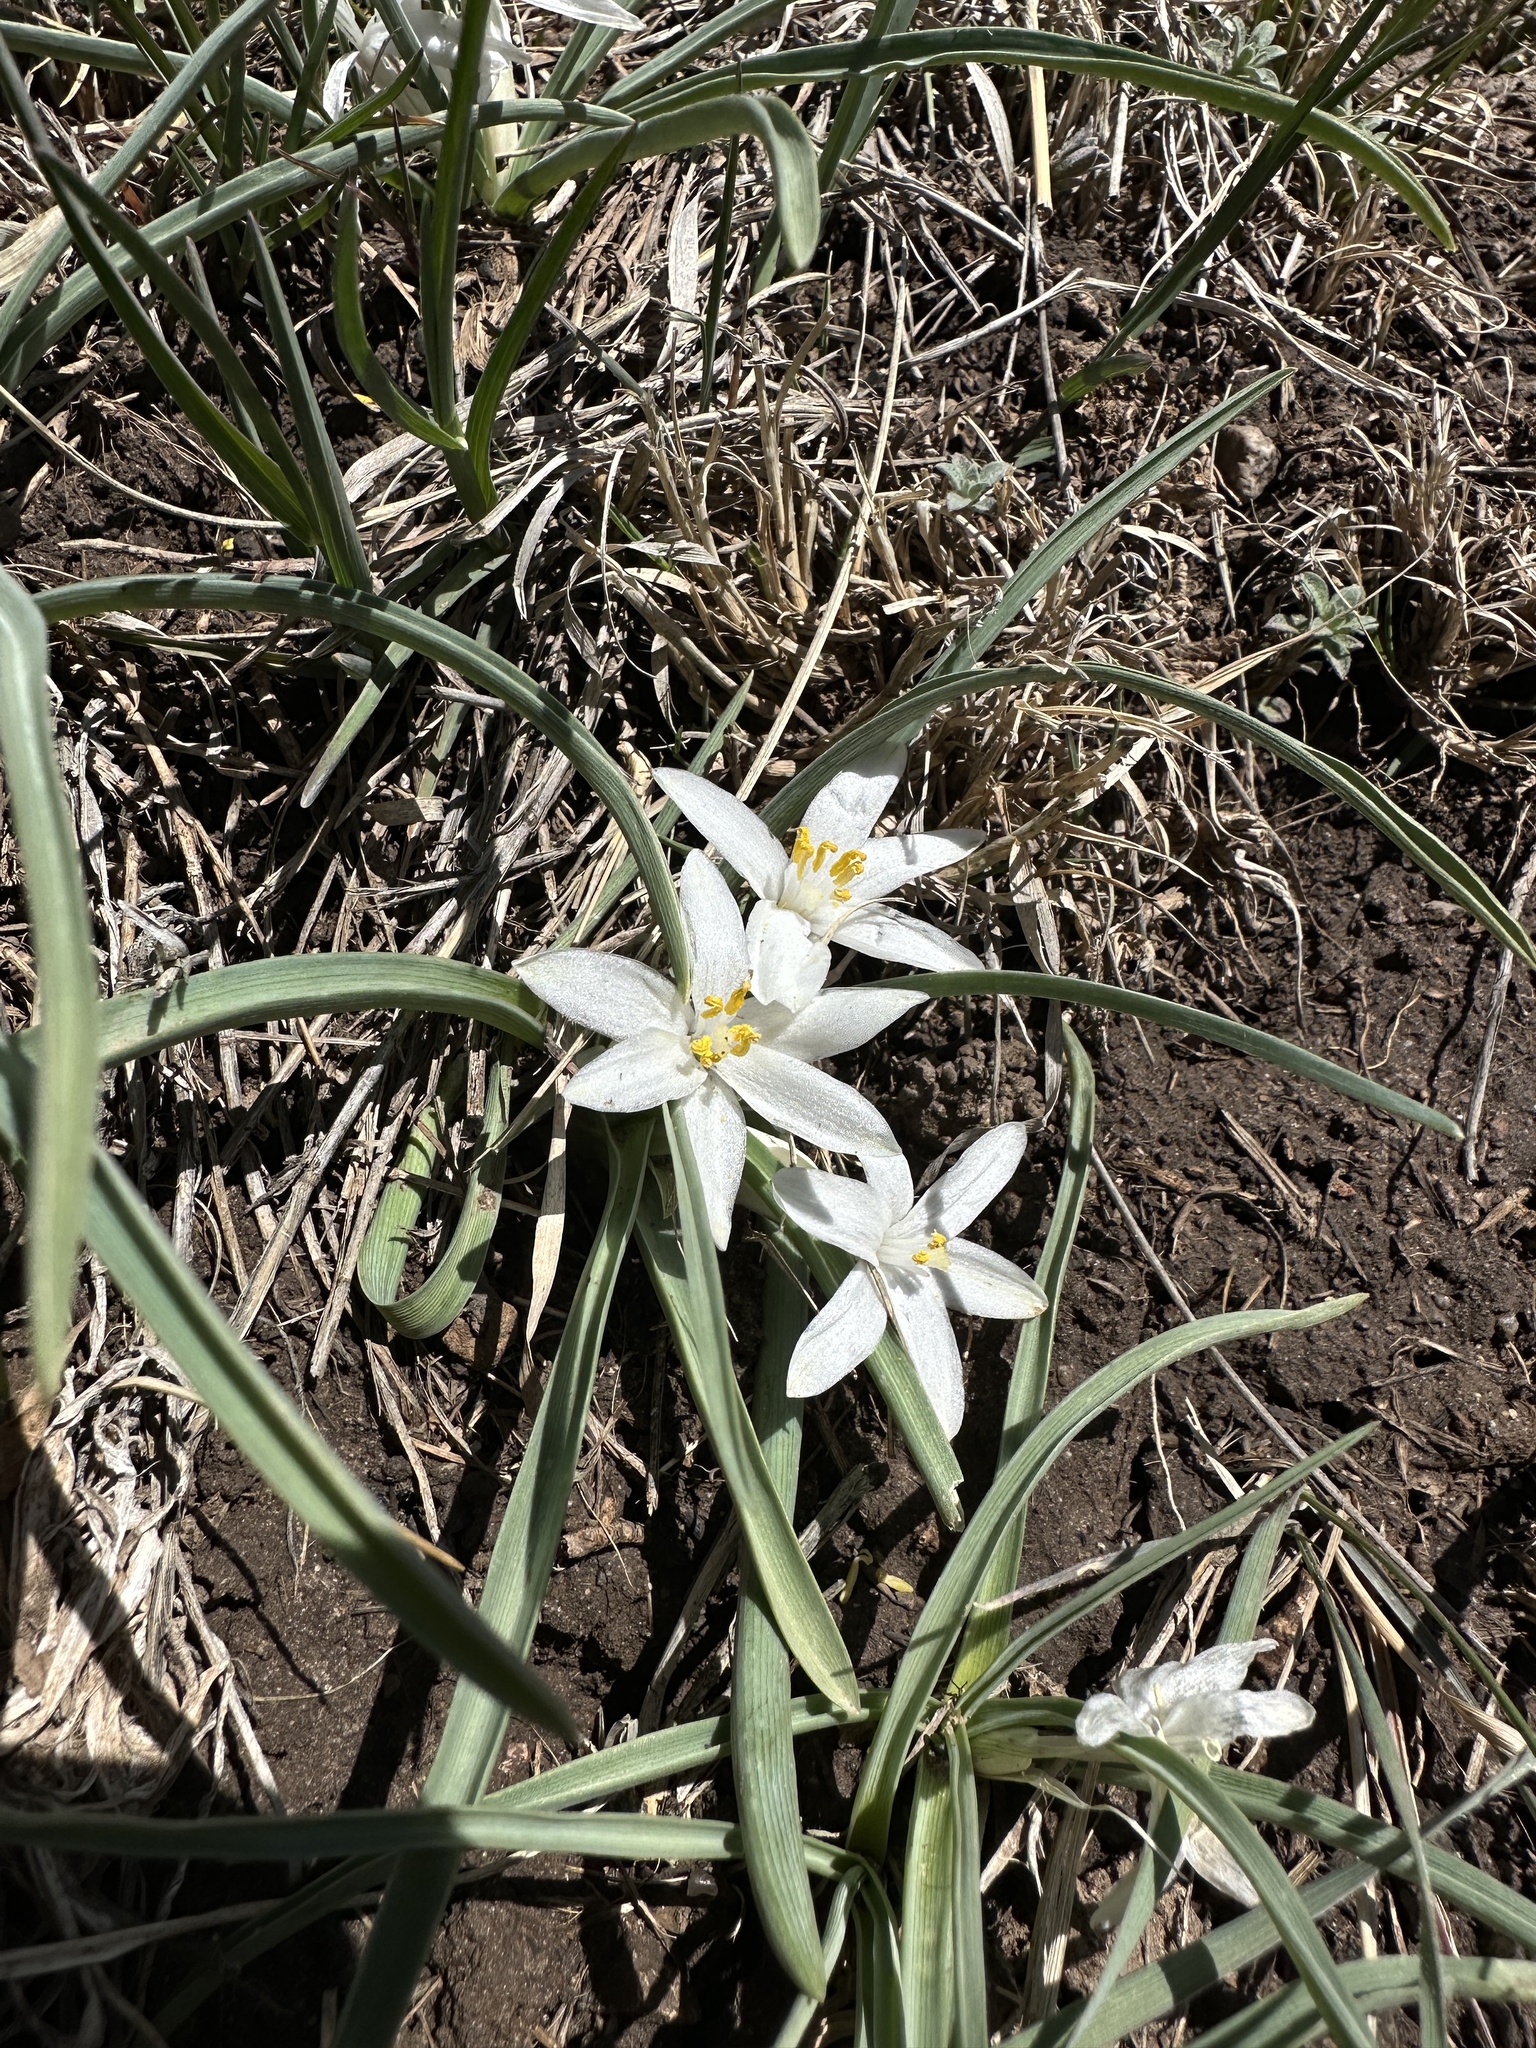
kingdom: Plantae
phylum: Tracheophyta
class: Liliopsida
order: Asparagales
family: Asparagaceae
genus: Leucocrinum
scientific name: Leucocrinum montanum
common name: Mountain-lily
